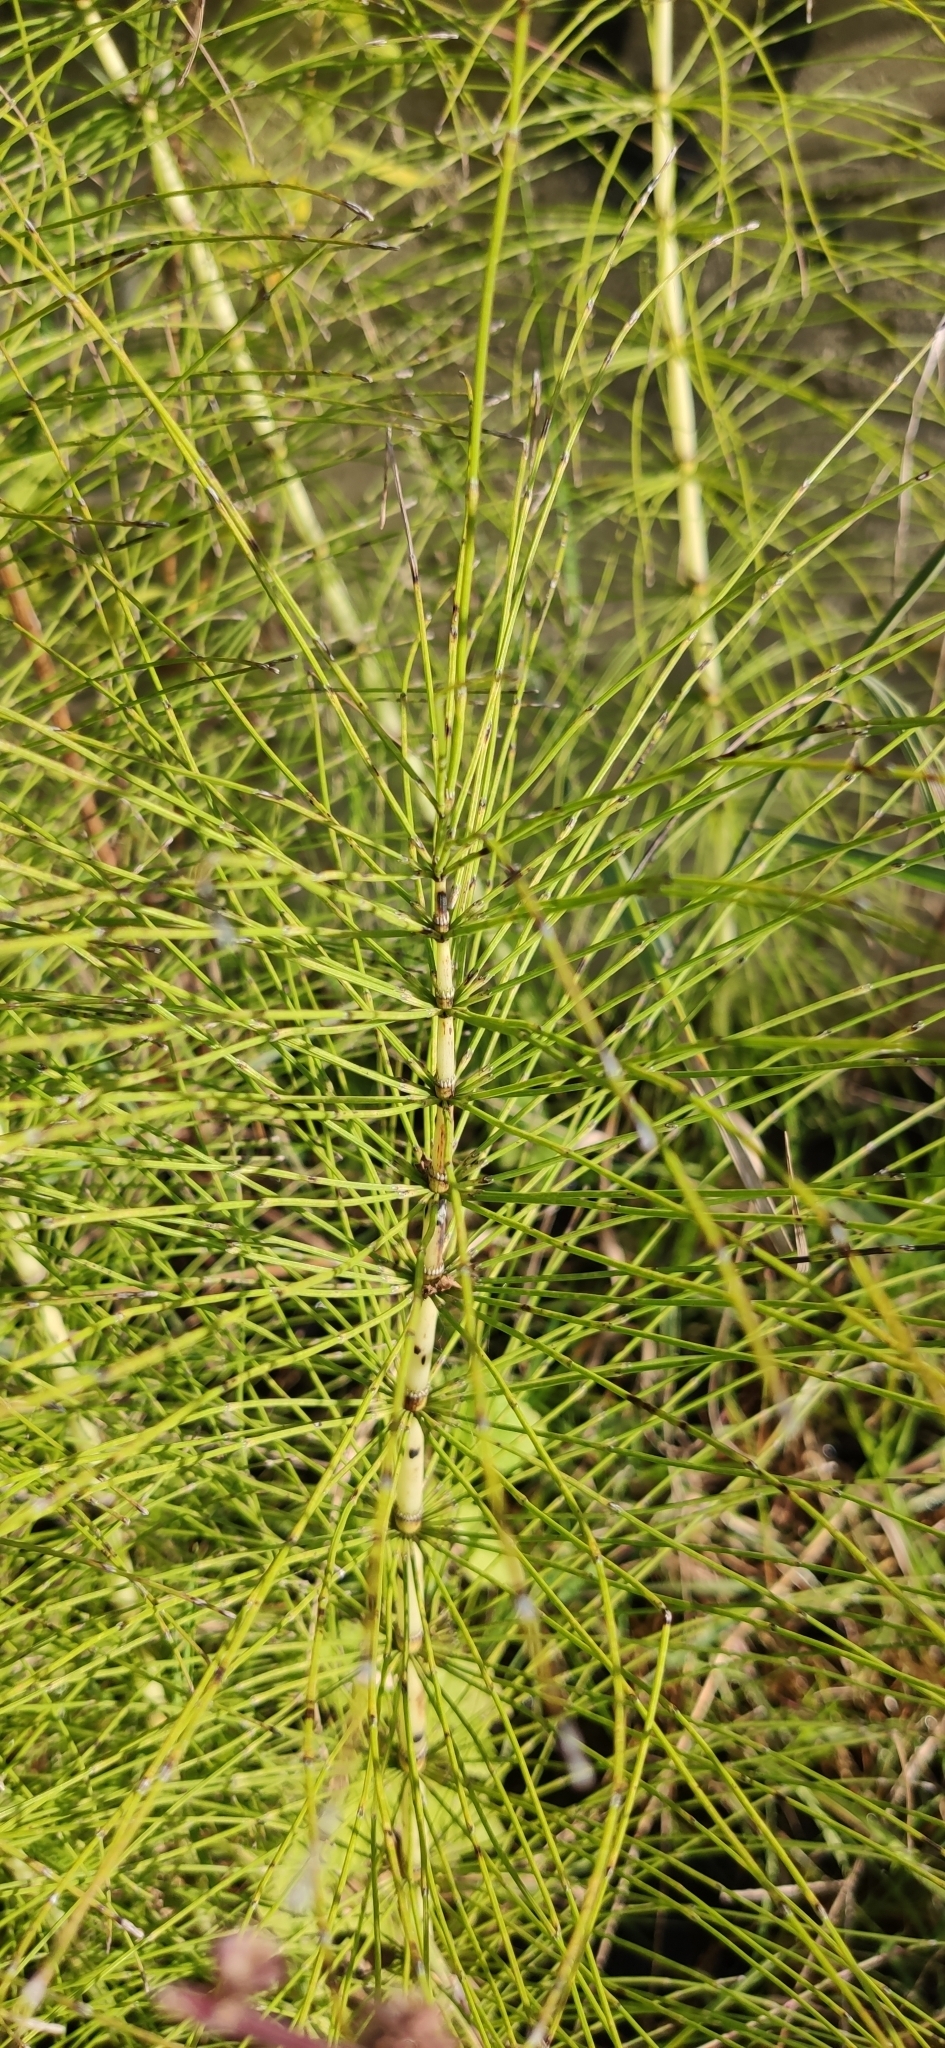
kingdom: Plantae
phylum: Tracheophyta
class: Polypodiopsida
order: Equisetales
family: Equisetaceae
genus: Equisetum
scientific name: Equisetum telmateia
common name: Great horsetail
